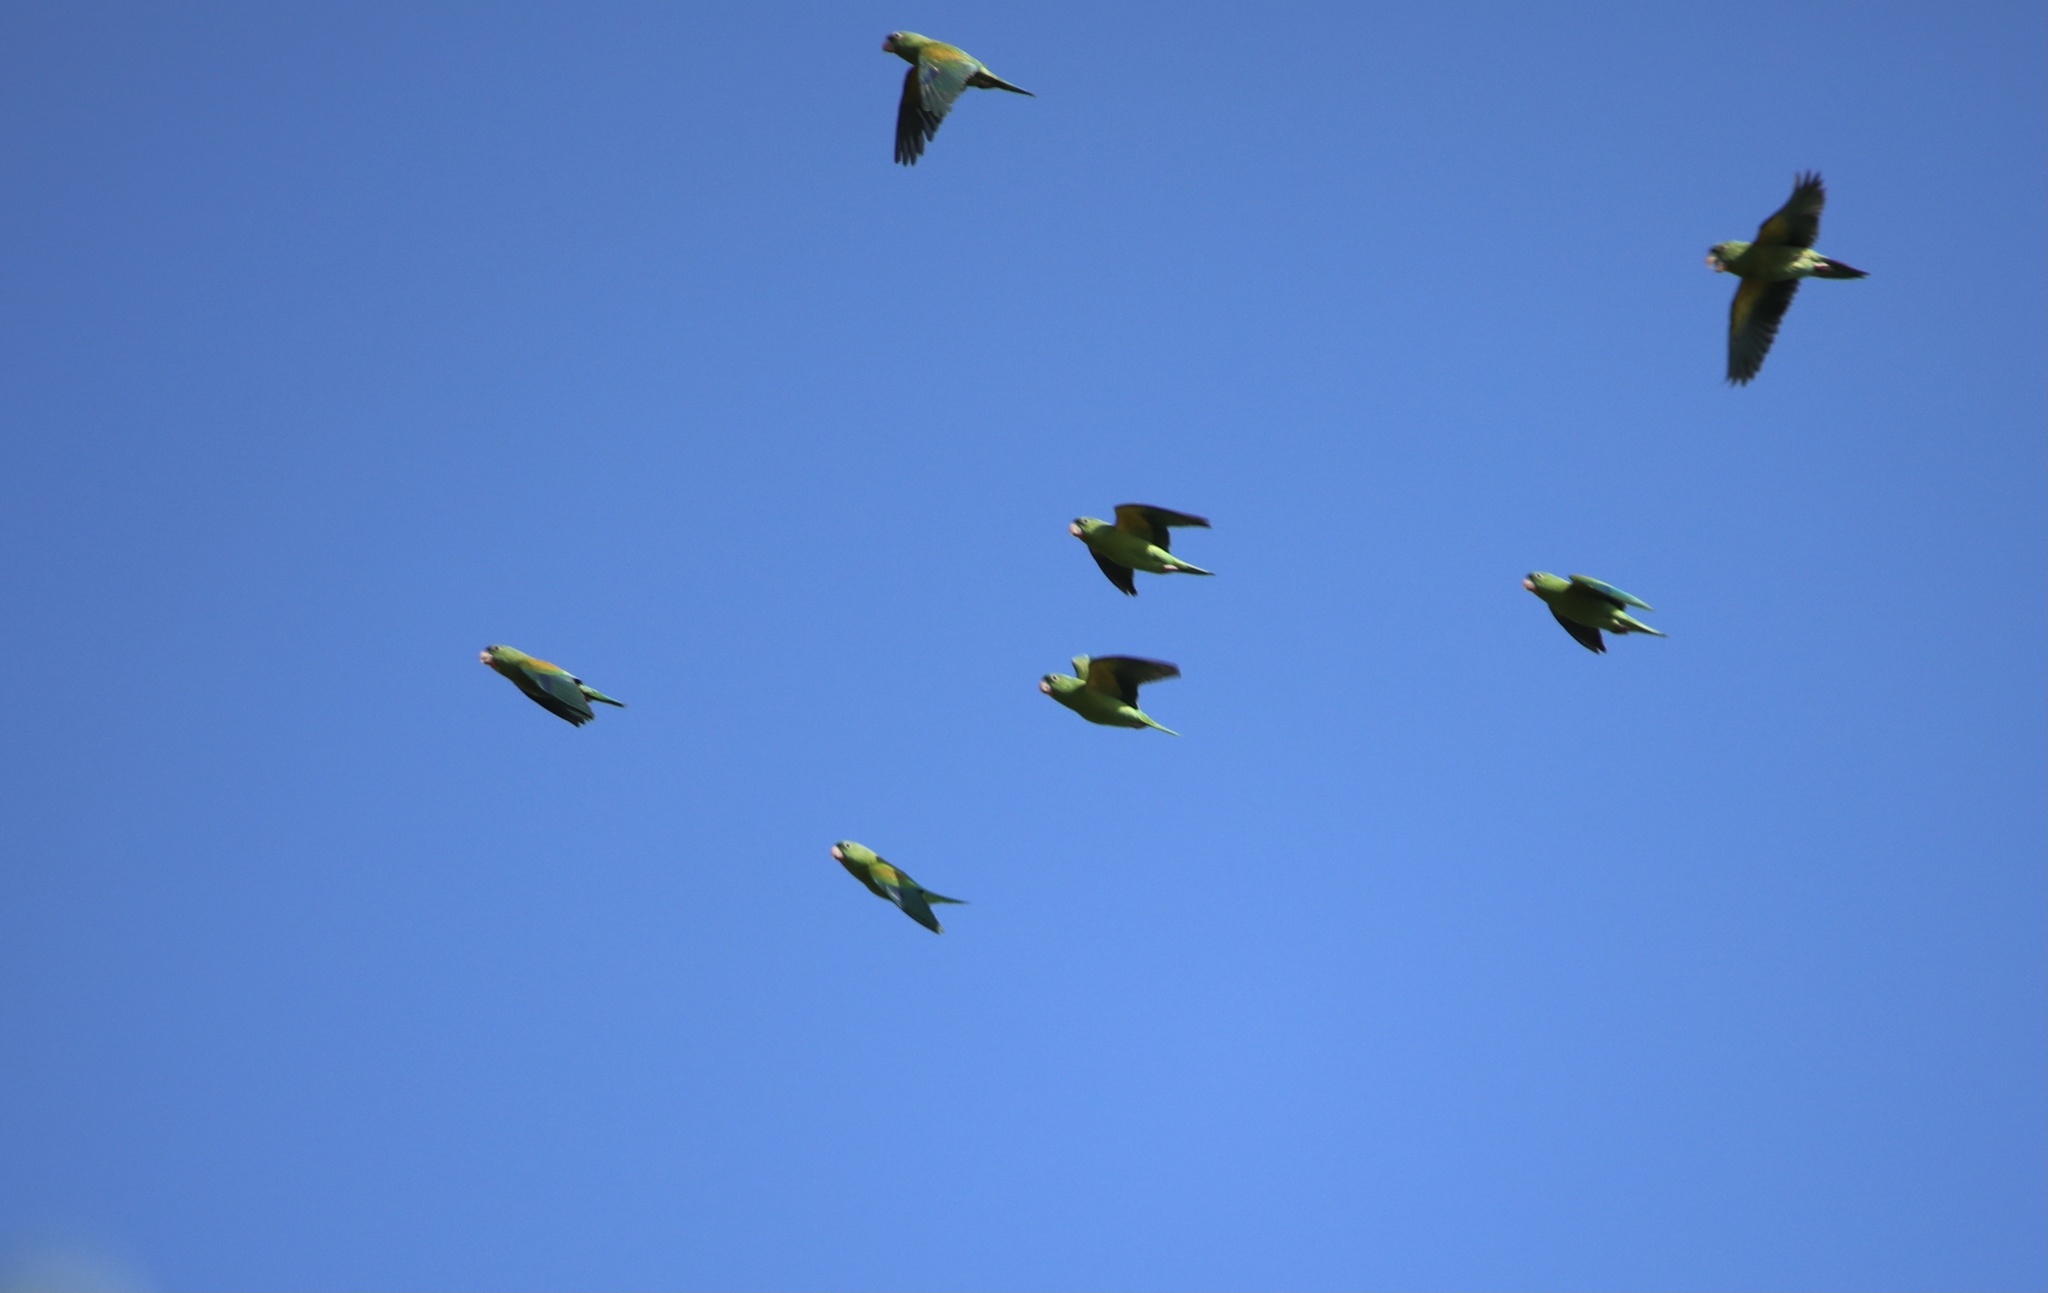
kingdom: Animalia
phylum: Chordata
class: Aves
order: Psittaciformes
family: Psittacidae
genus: Brotogeris
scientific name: Brotogeris jugularis
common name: Orange-chinned parakeet
